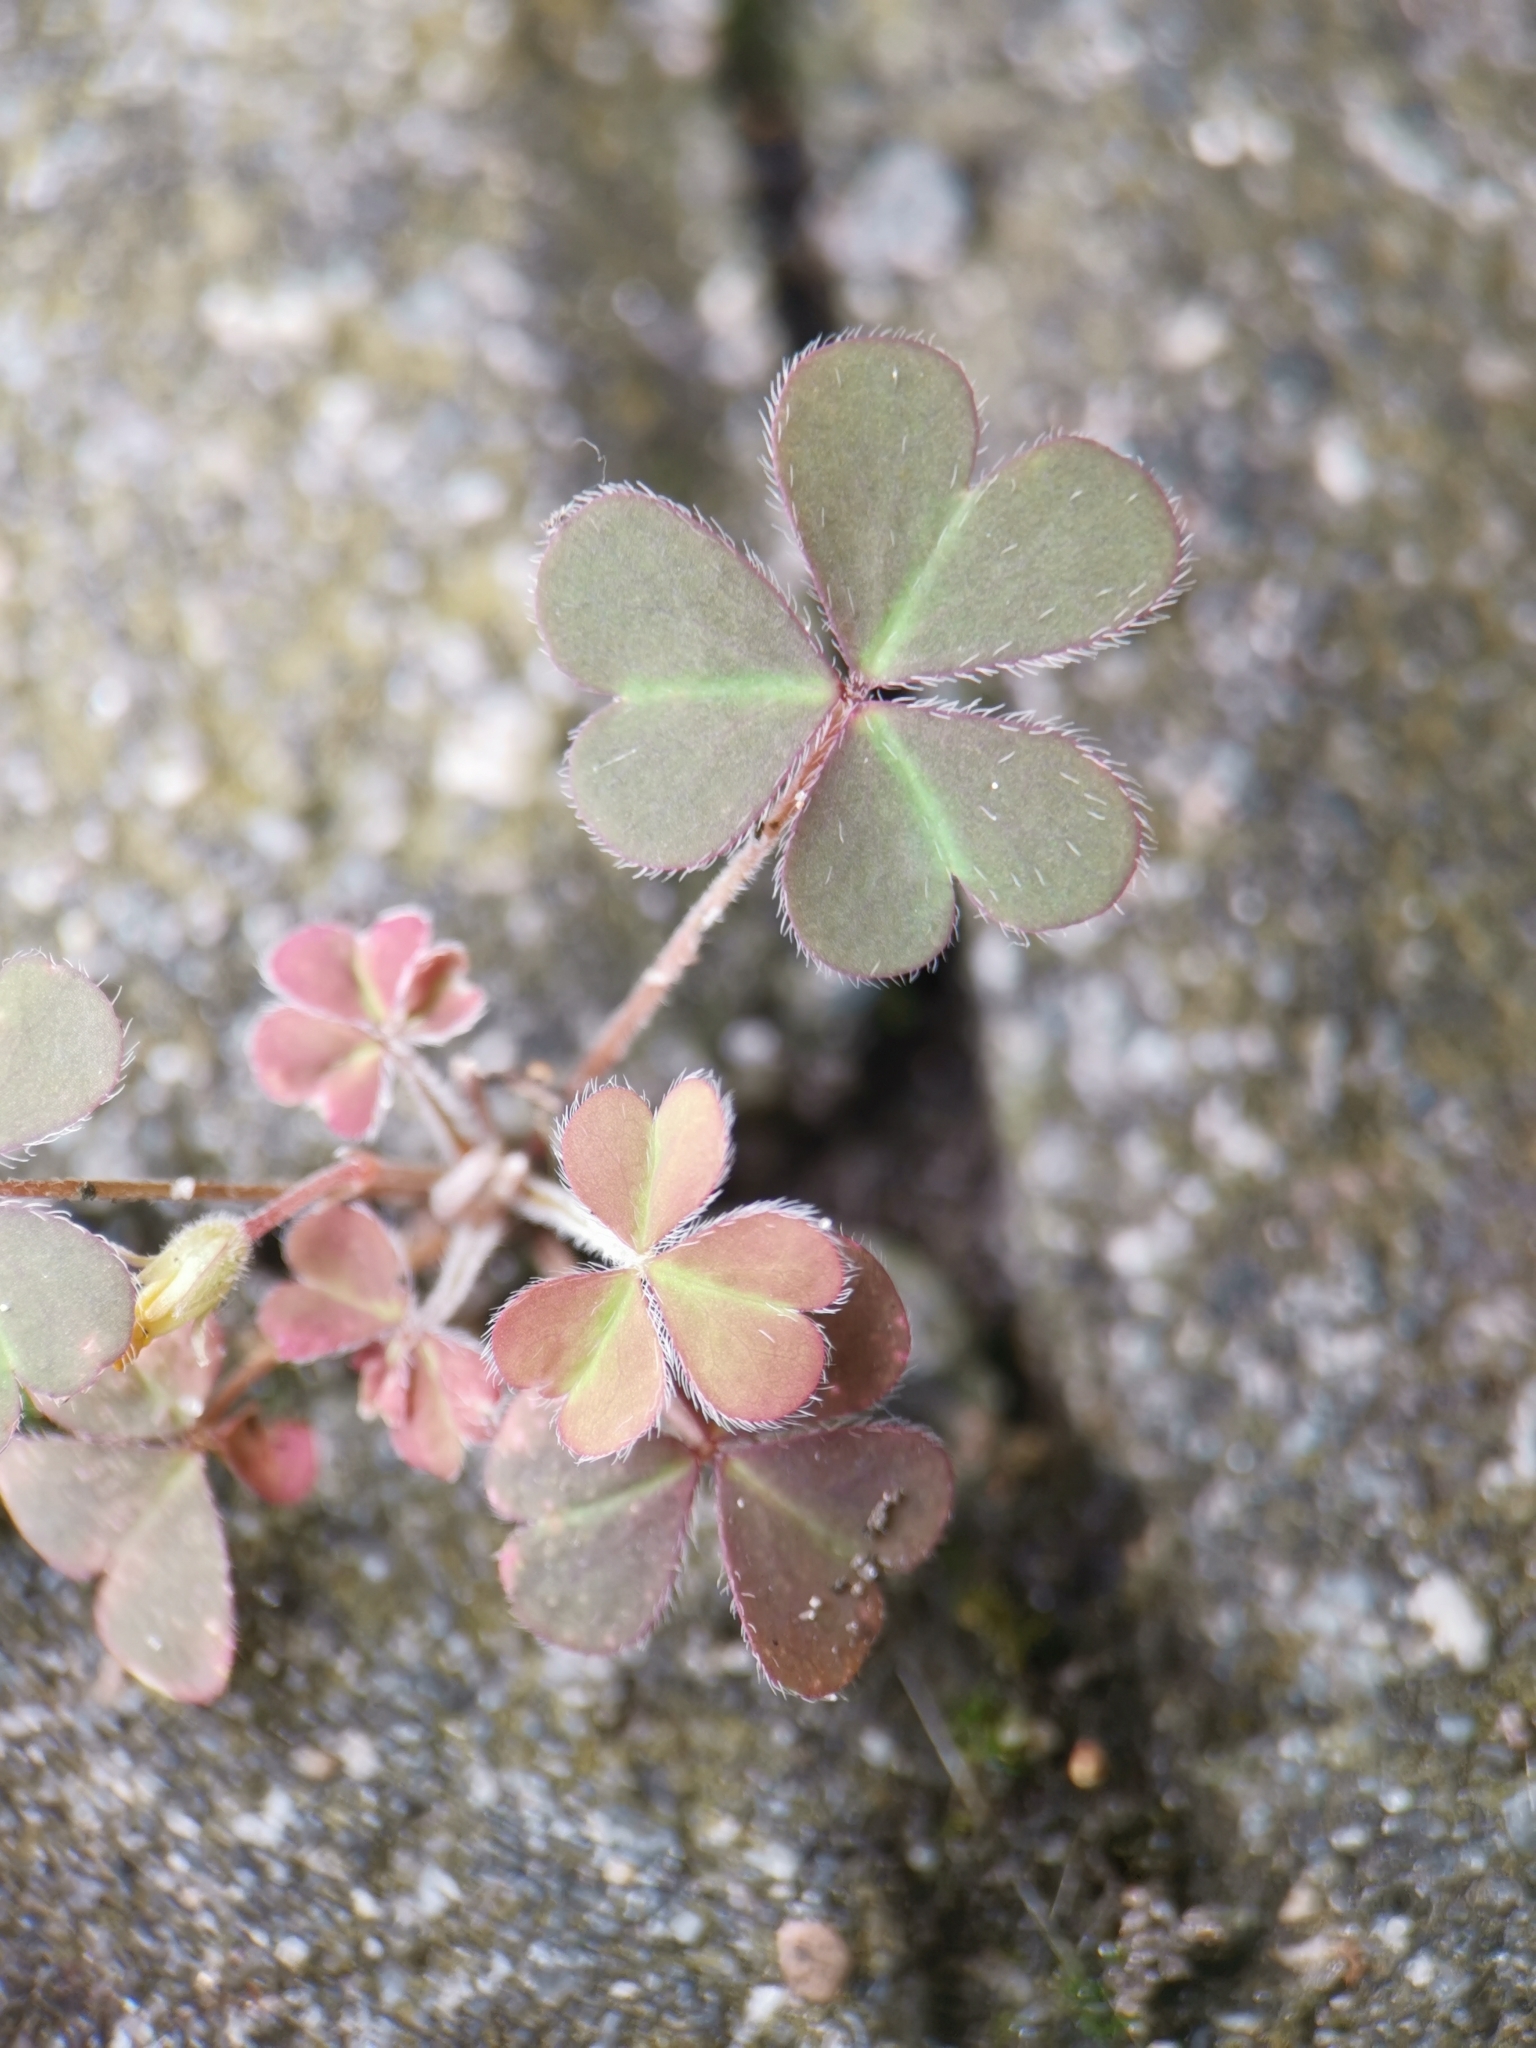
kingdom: Plantae
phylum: Tracheophyta
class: Magnoliopsida
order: Oxalidales
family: Oxalidaceae
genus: Oxalis
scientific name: Oxalis corniculata
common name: Procumbent yellow-sorrel
